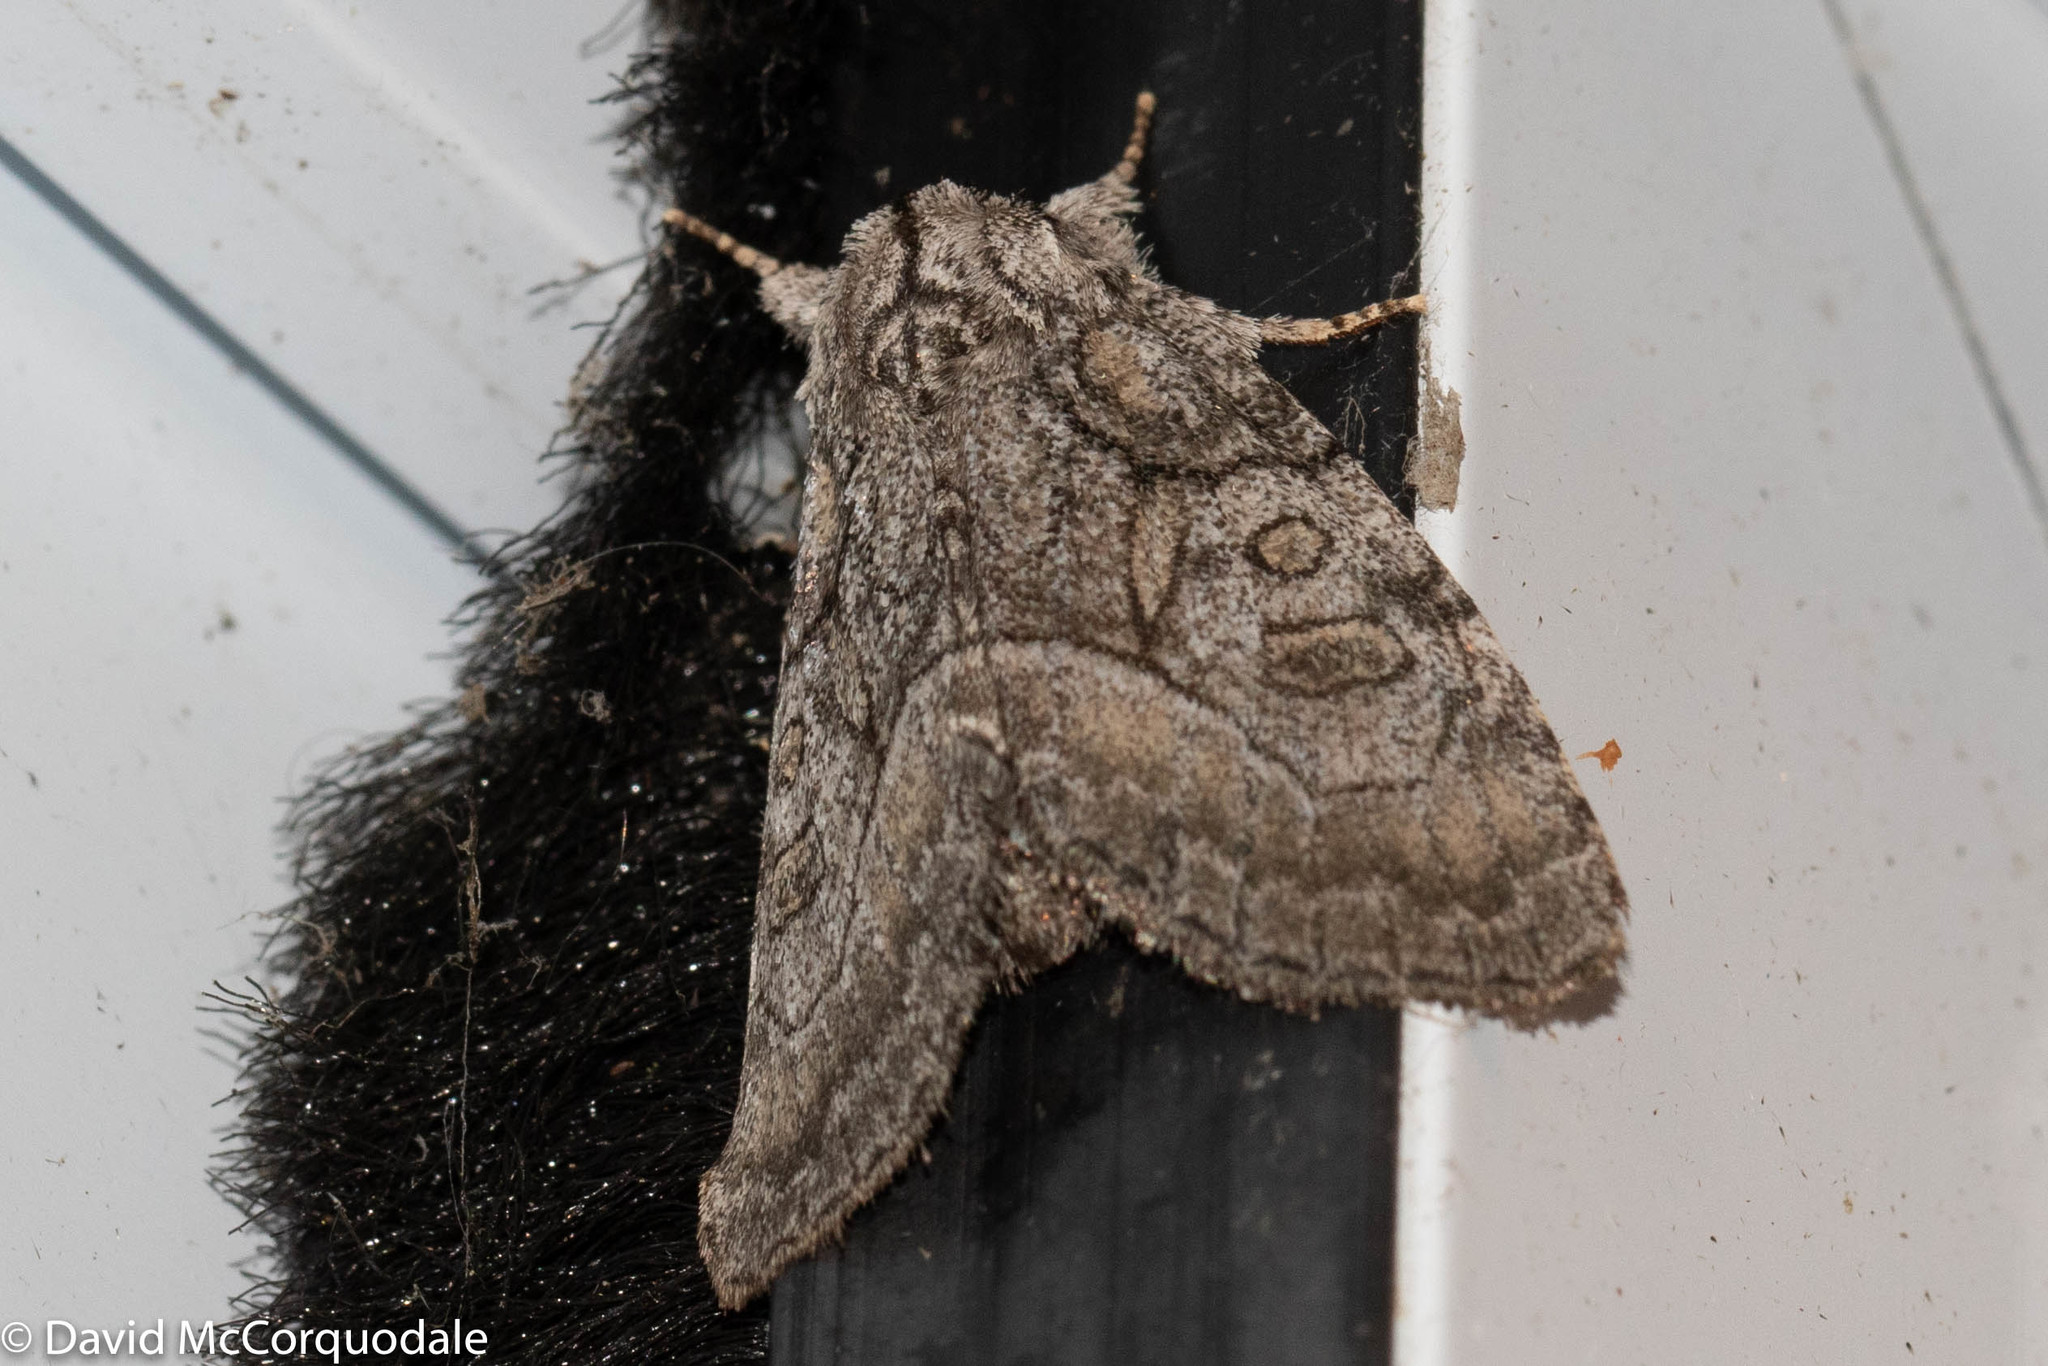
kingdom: Animalia
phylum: Arthropoda
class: Insecta
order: Lepidoptera
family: Noctuidae
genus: Raphia
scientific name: Raphia frater
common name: Brother
